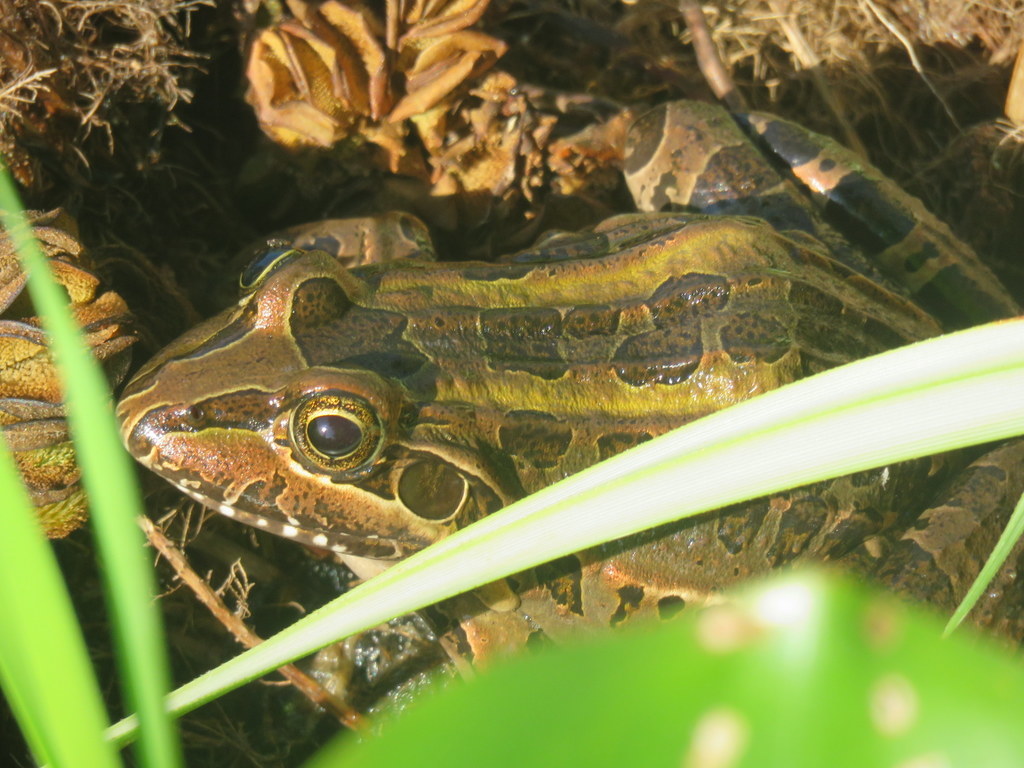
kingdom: Animalia
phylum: Chordata
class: Amphibia
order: Anura
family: Leptodactylidae
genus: Leptodactylus
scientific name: Leptodactylus luctator
